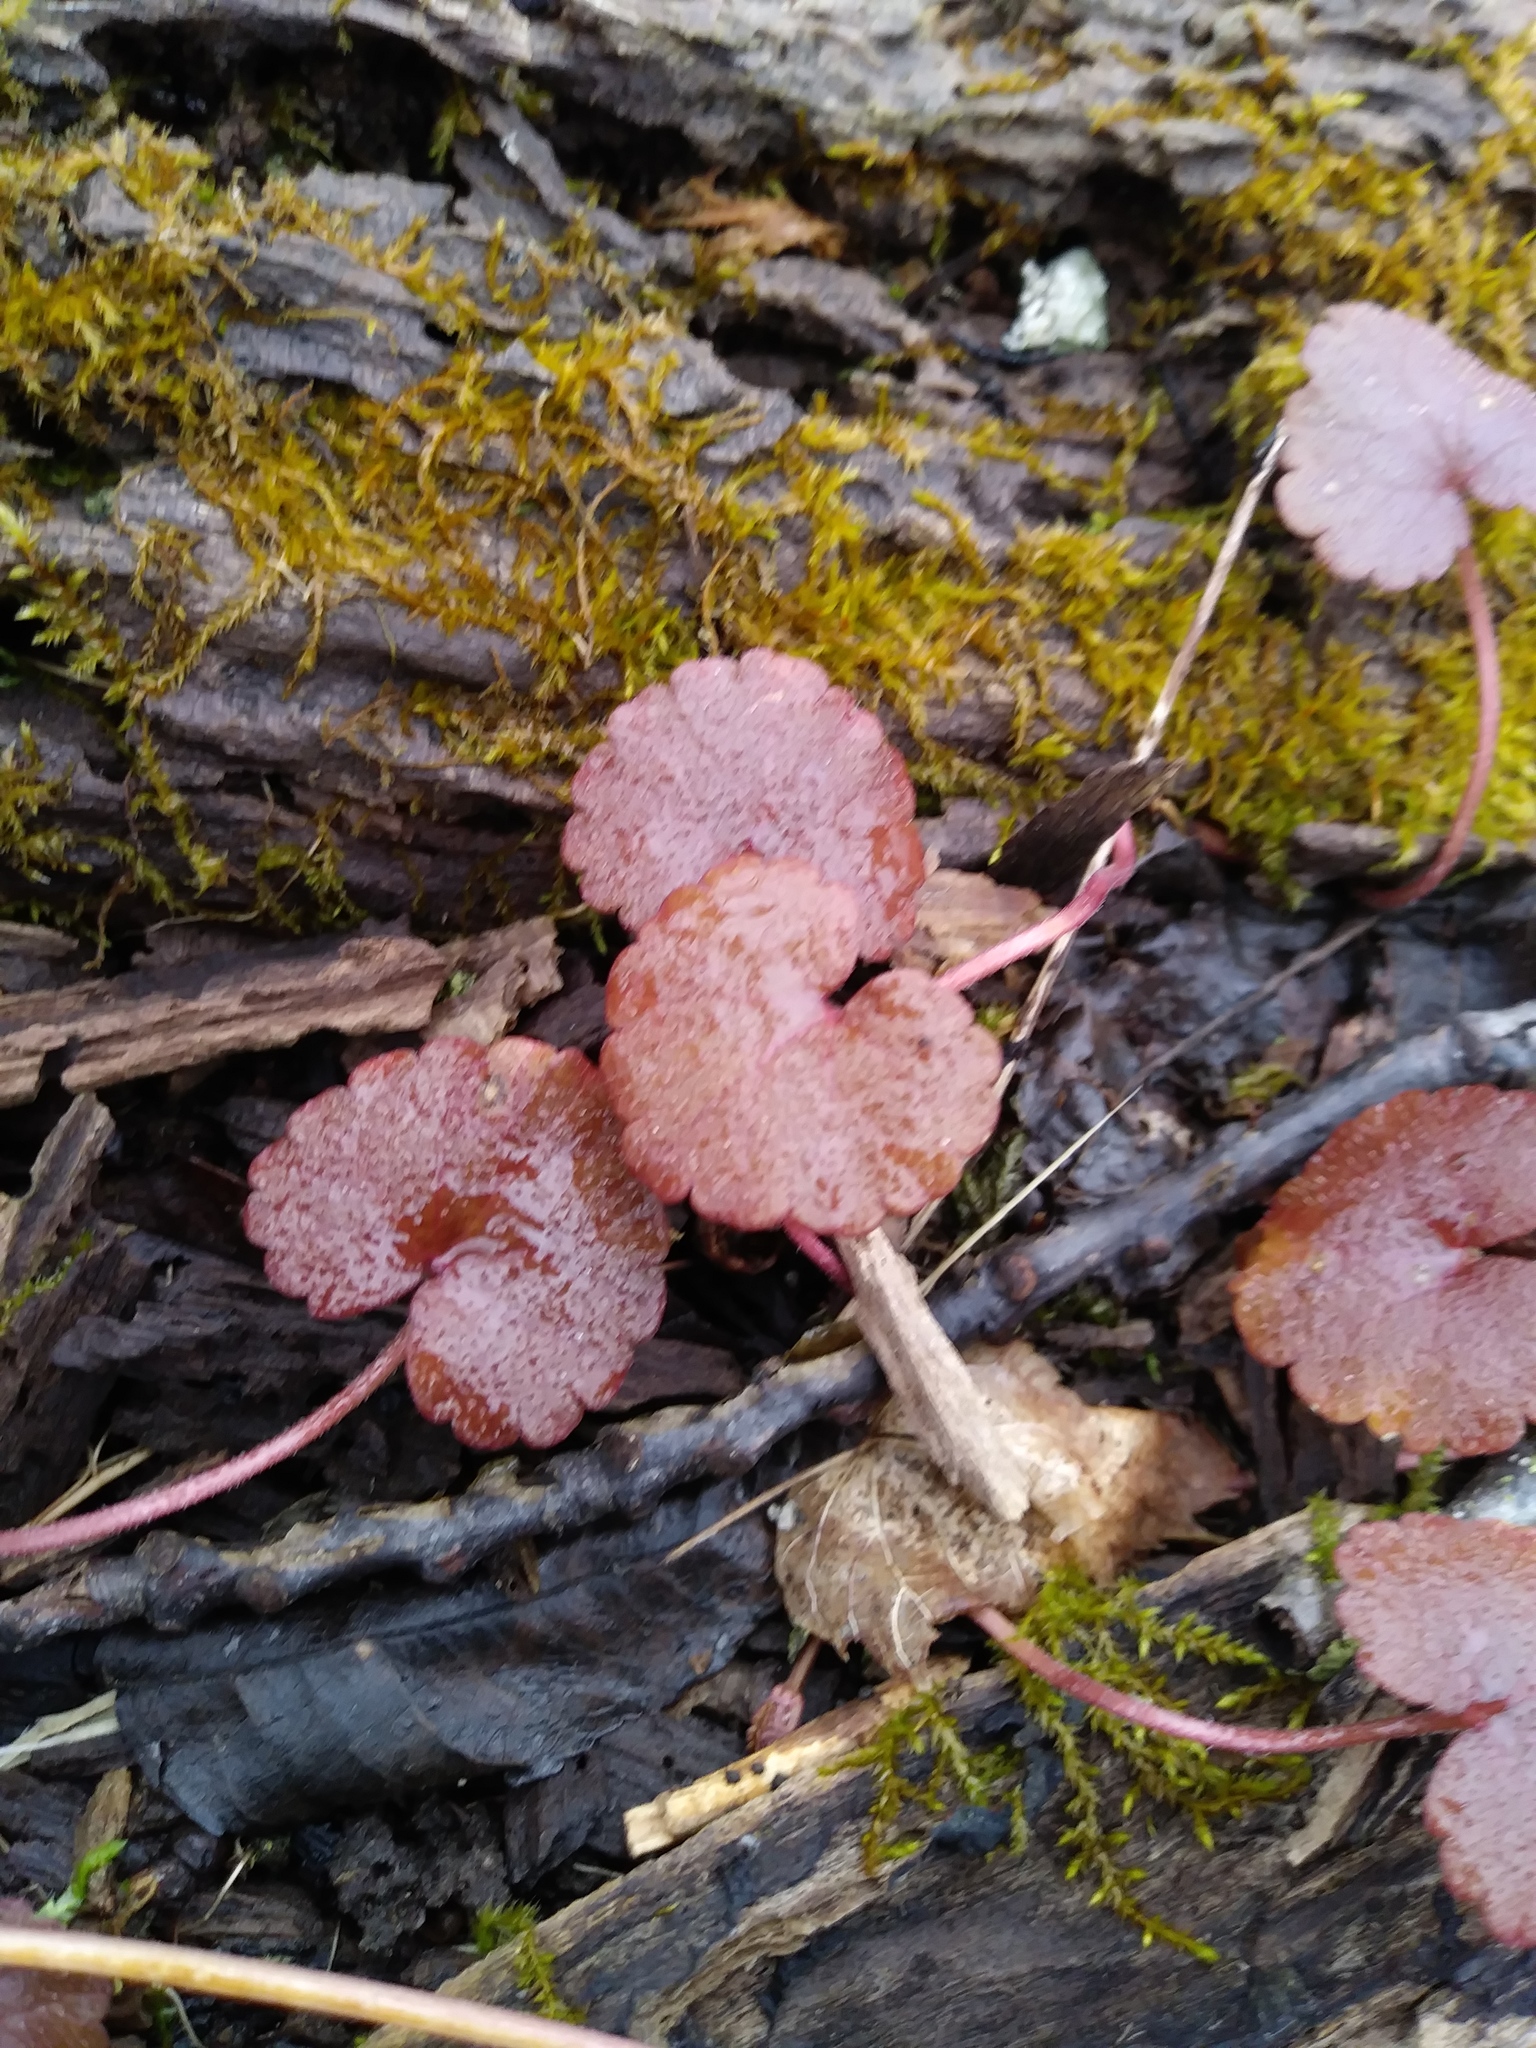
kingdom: Plantae
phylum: Tracheophyta
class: Magnoliopsida
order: Lamiales
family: Lamiaceae
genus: Glechoma
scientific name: Glechoma hederacea
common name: Ground ivy
